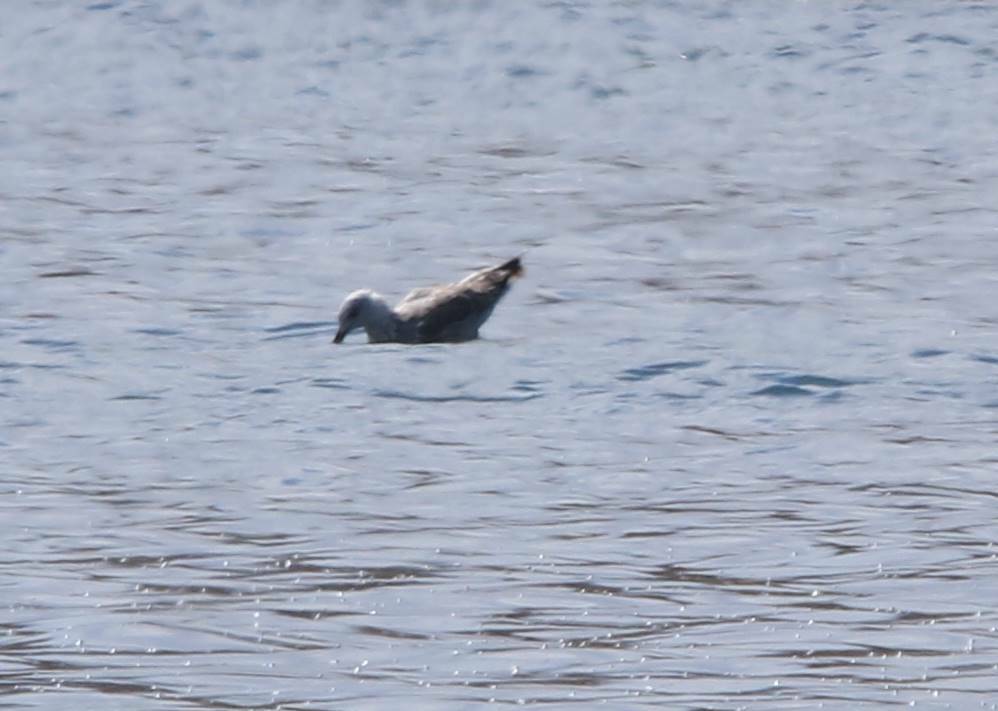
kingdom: Animalia
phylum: Chordata
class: Aves
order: Charadriiformes
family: Laridae
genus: Larus
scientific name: Larus michahellis
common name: Yellow-legged gull
